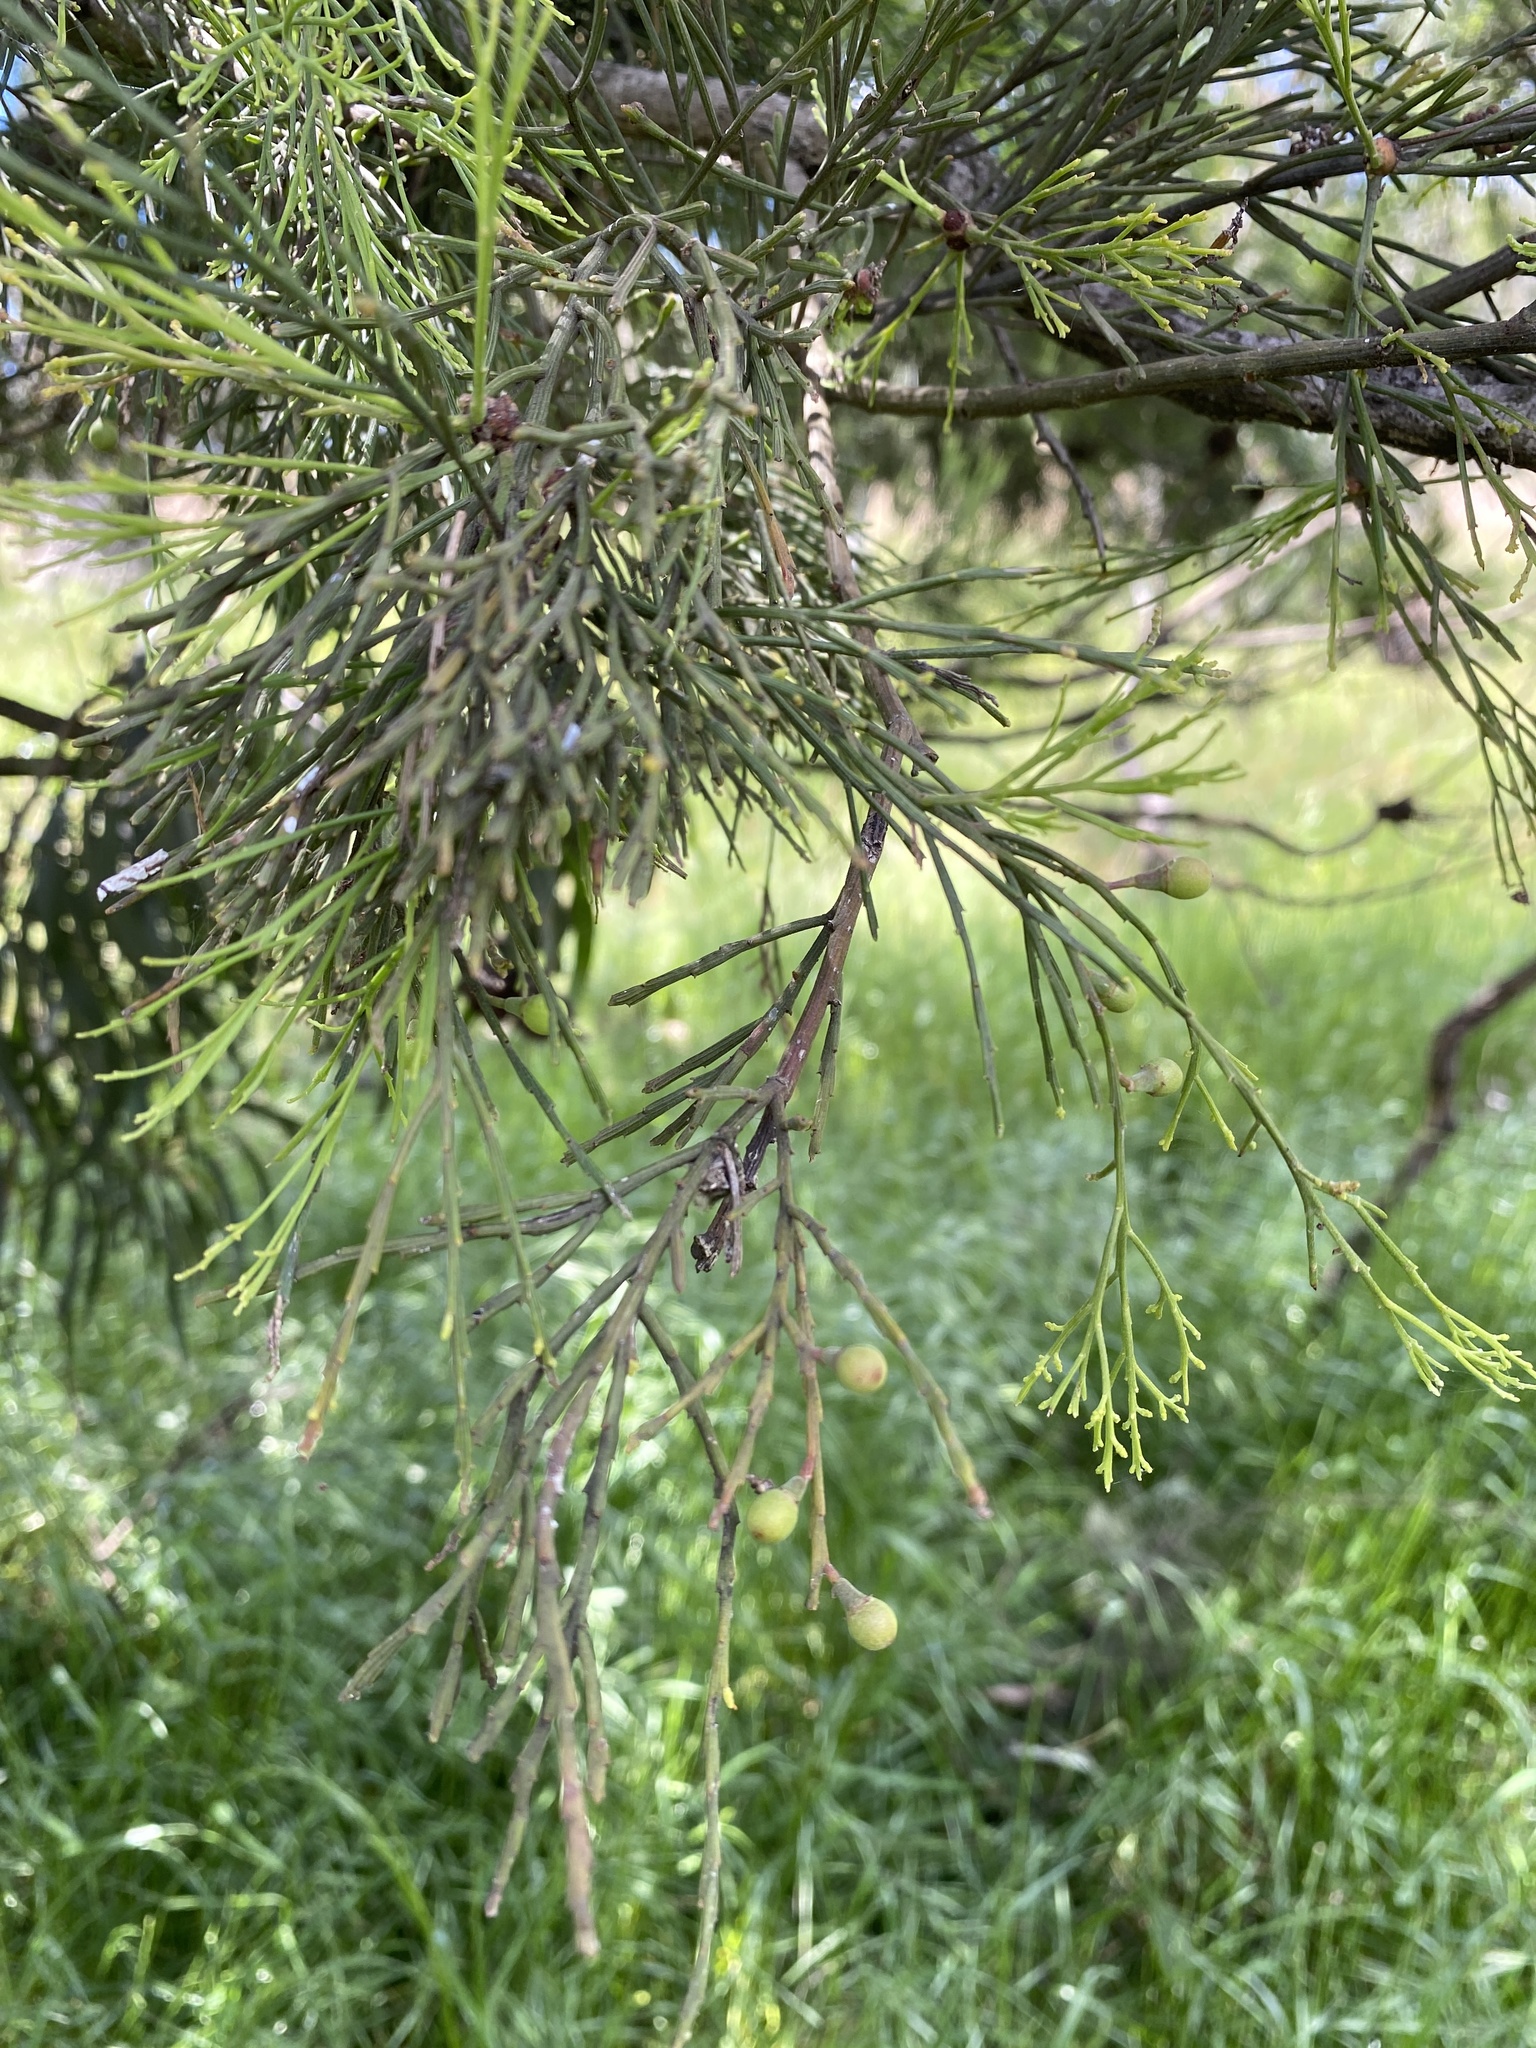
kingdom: Plantae
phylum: Tracheophyta
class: Magnoliopsida
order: Santalales
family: Santalaceae
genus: Exocarpos
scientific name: Exocarpos cupressiformis
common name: Cherry ballart
